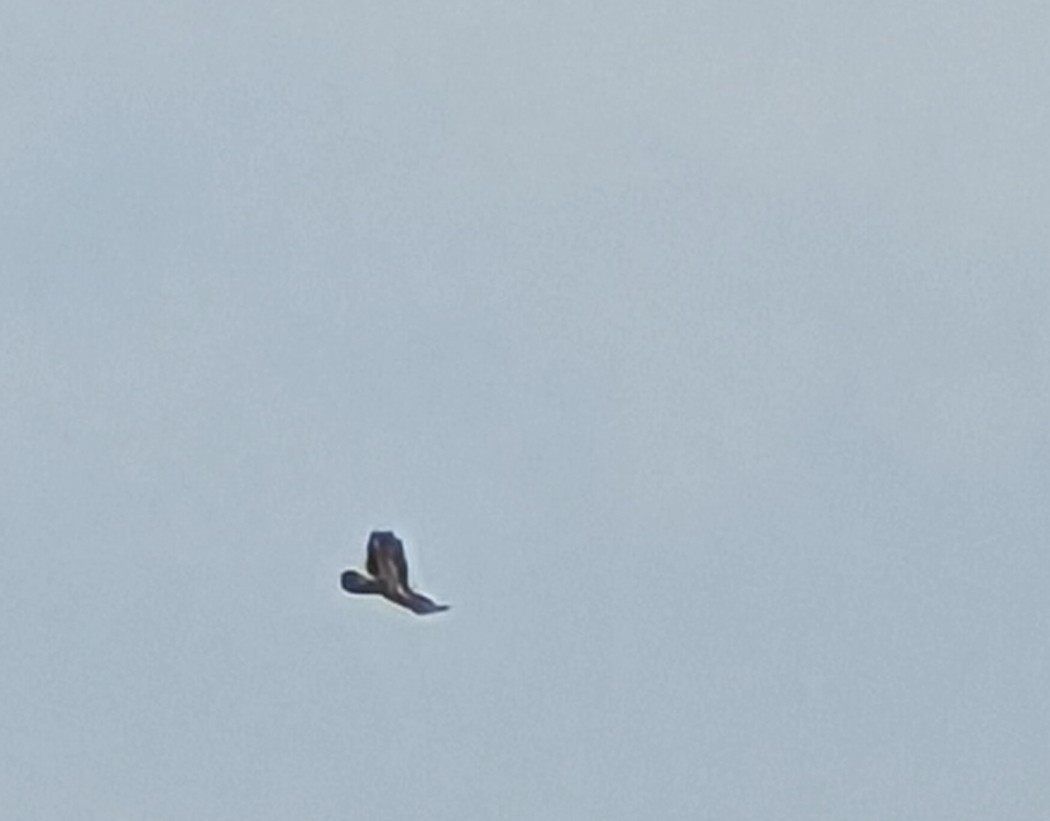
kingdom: Animalia
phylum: Chordata
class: Aves
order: Accipitriformes
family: Accipitridae
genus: Buteo
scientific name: Buteo buteo
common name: Common buzzard
